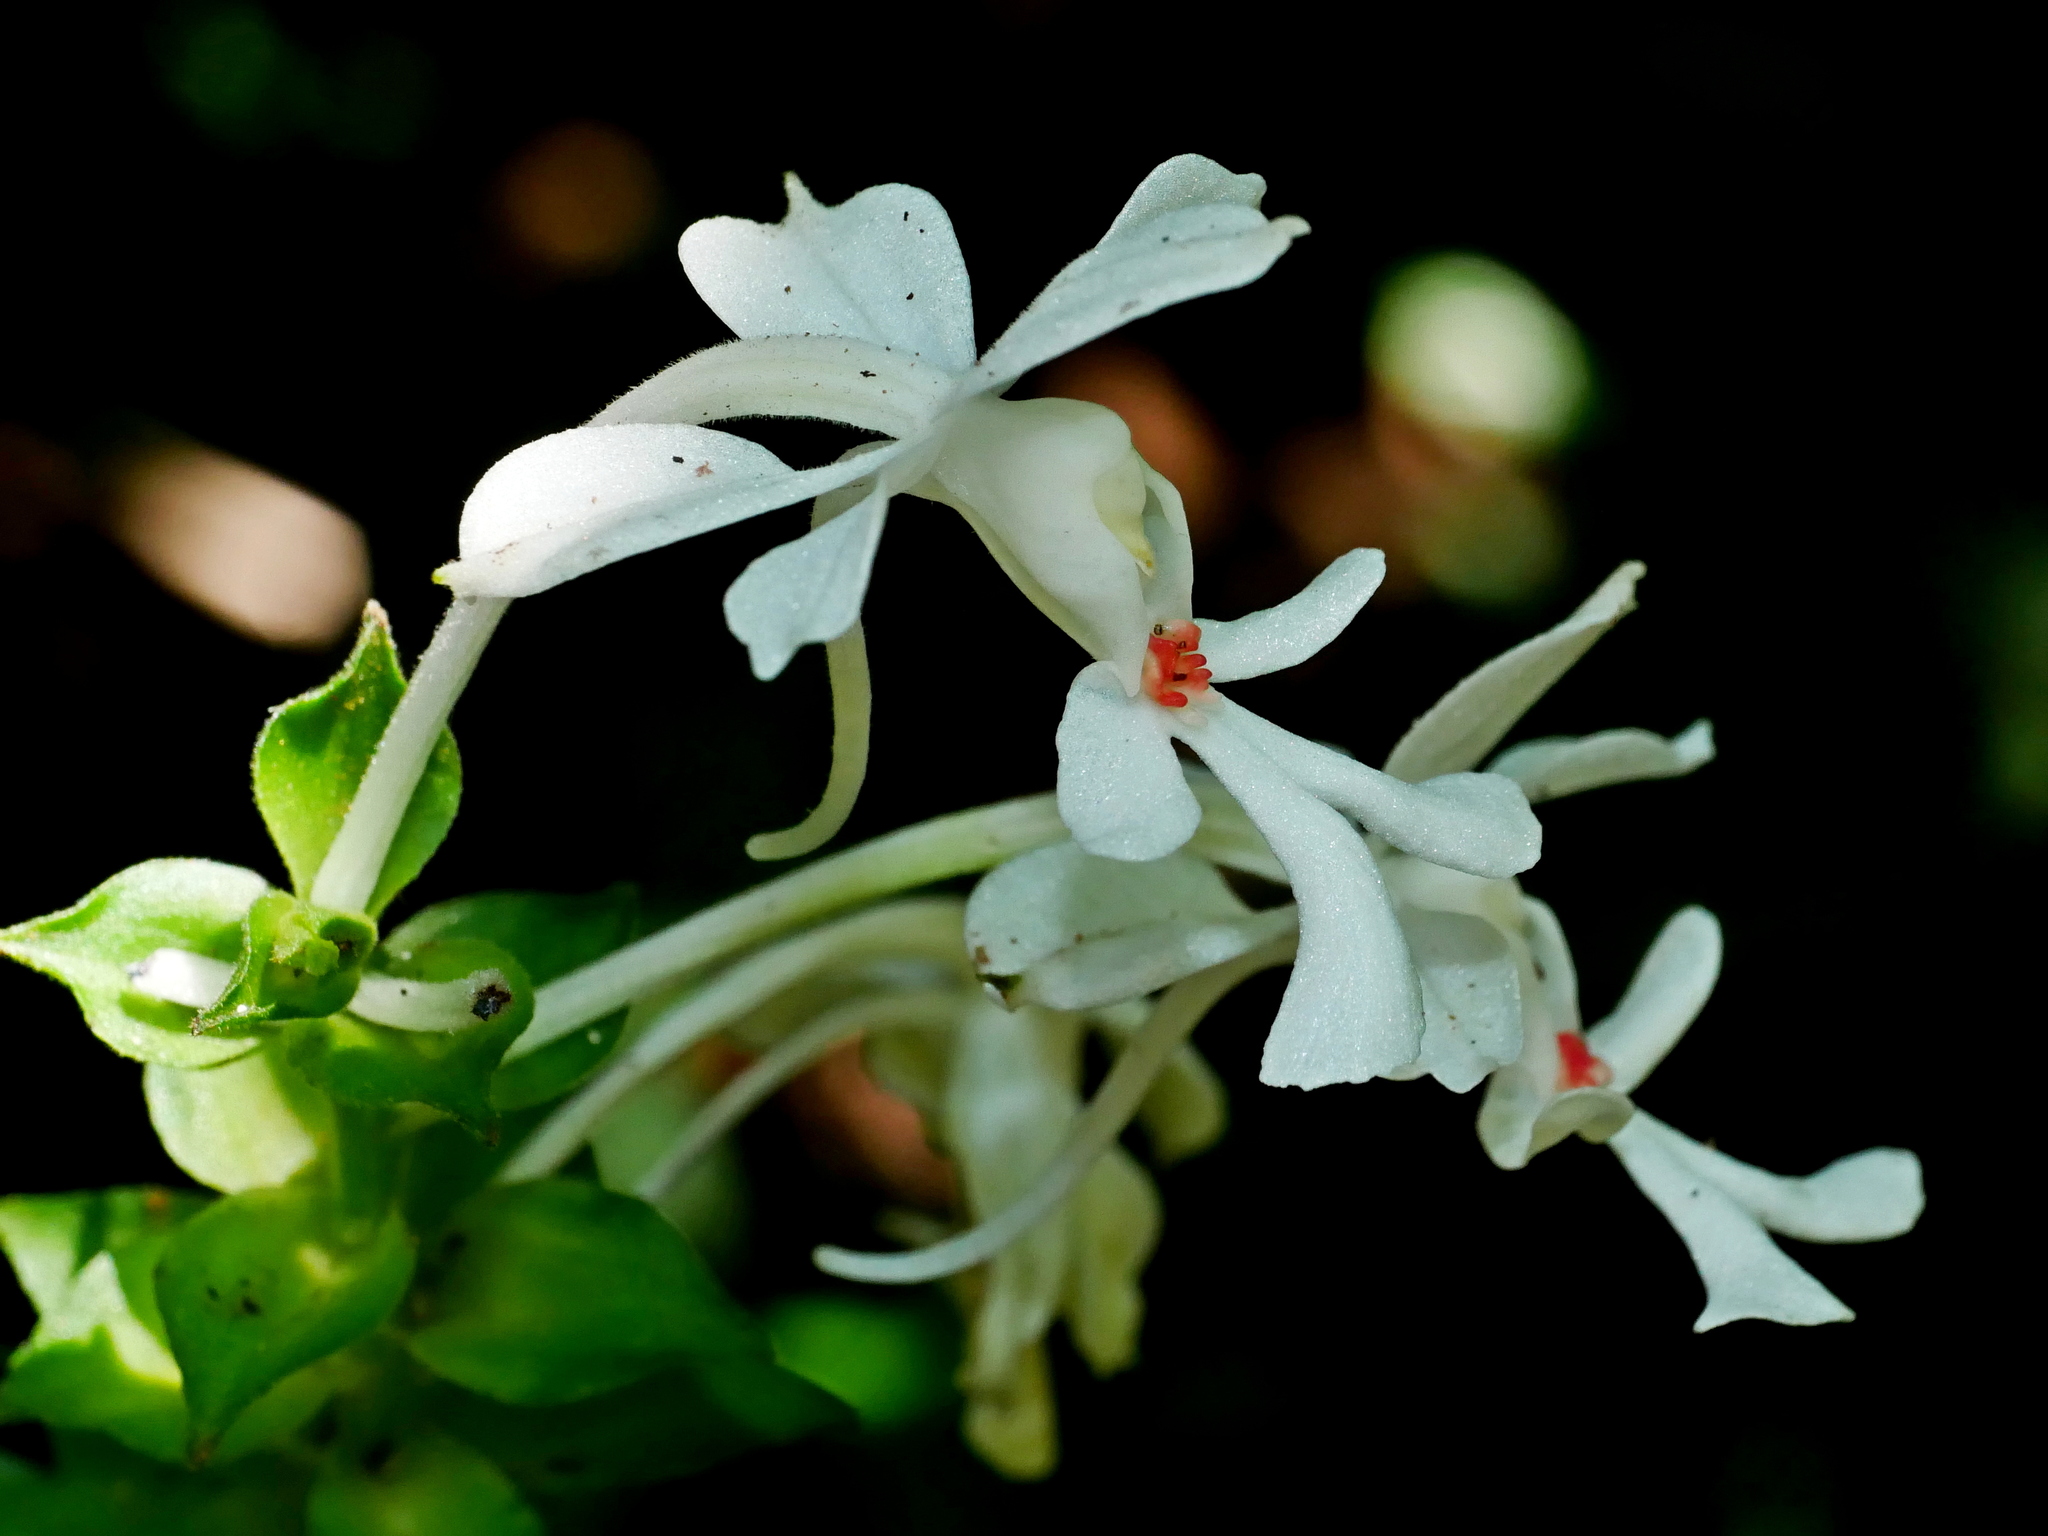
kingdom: Plantae
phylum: Tracheophyta
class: Liliopsida
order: Asparagales
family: Orchidaceae
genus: Calanthe
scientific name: Calanthe triplicata
